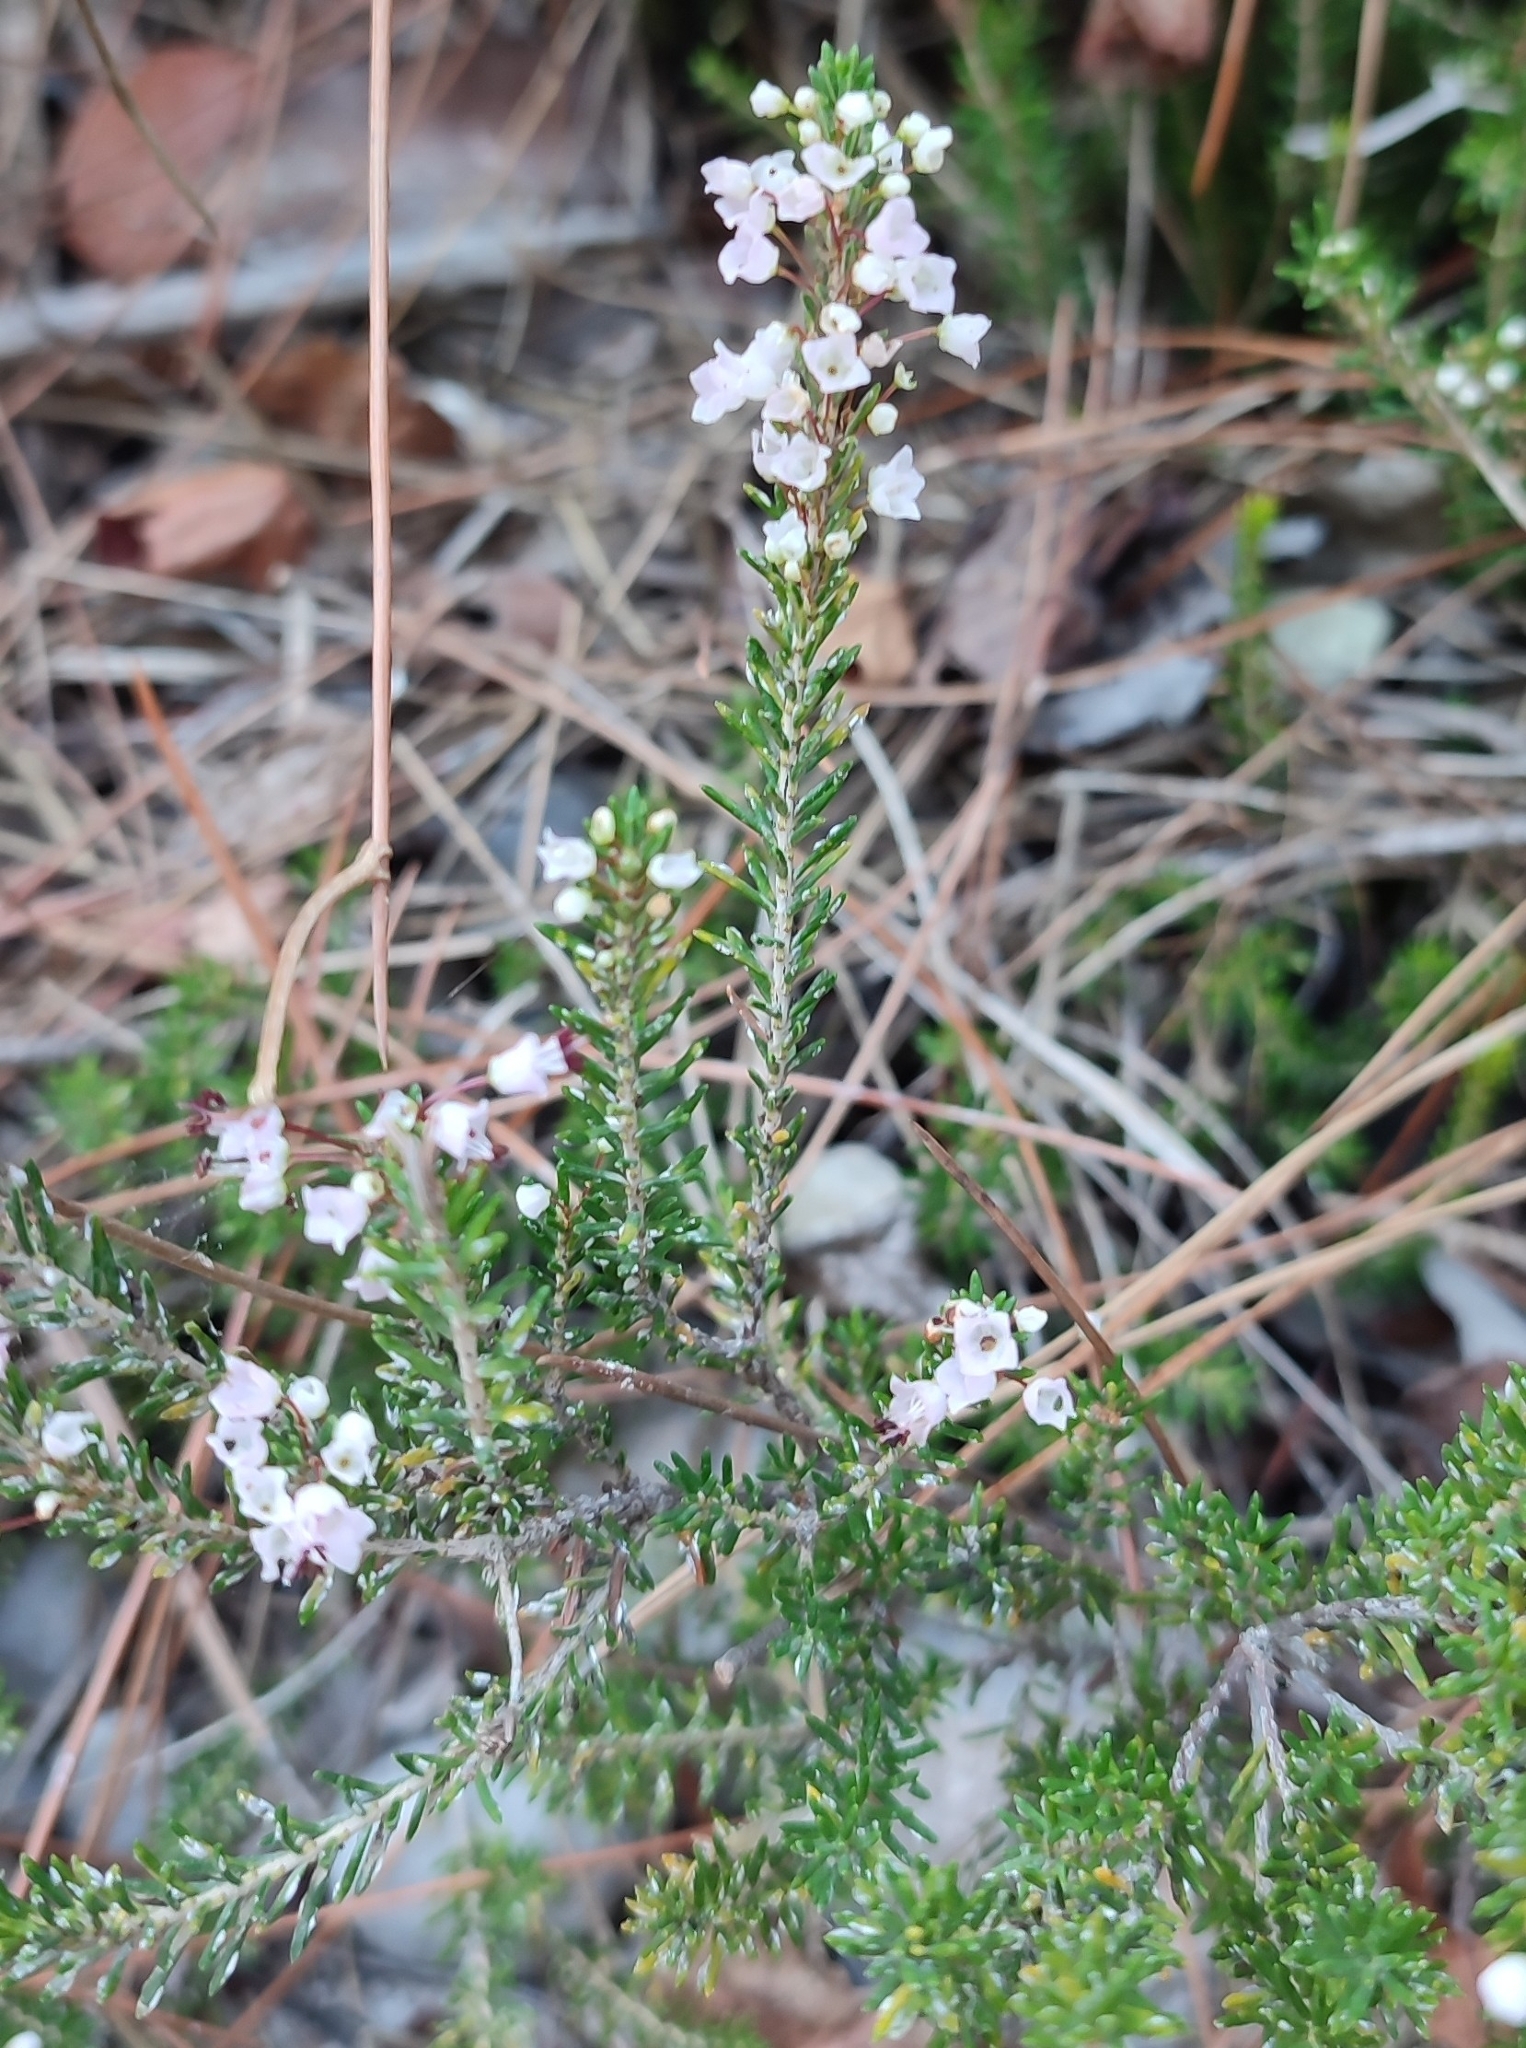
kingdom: Plantae
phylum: Tracheophyta
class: Magnoliopsida
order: Ericales
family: Ericaceae
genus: Erica
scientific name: Erica manipuliflora
